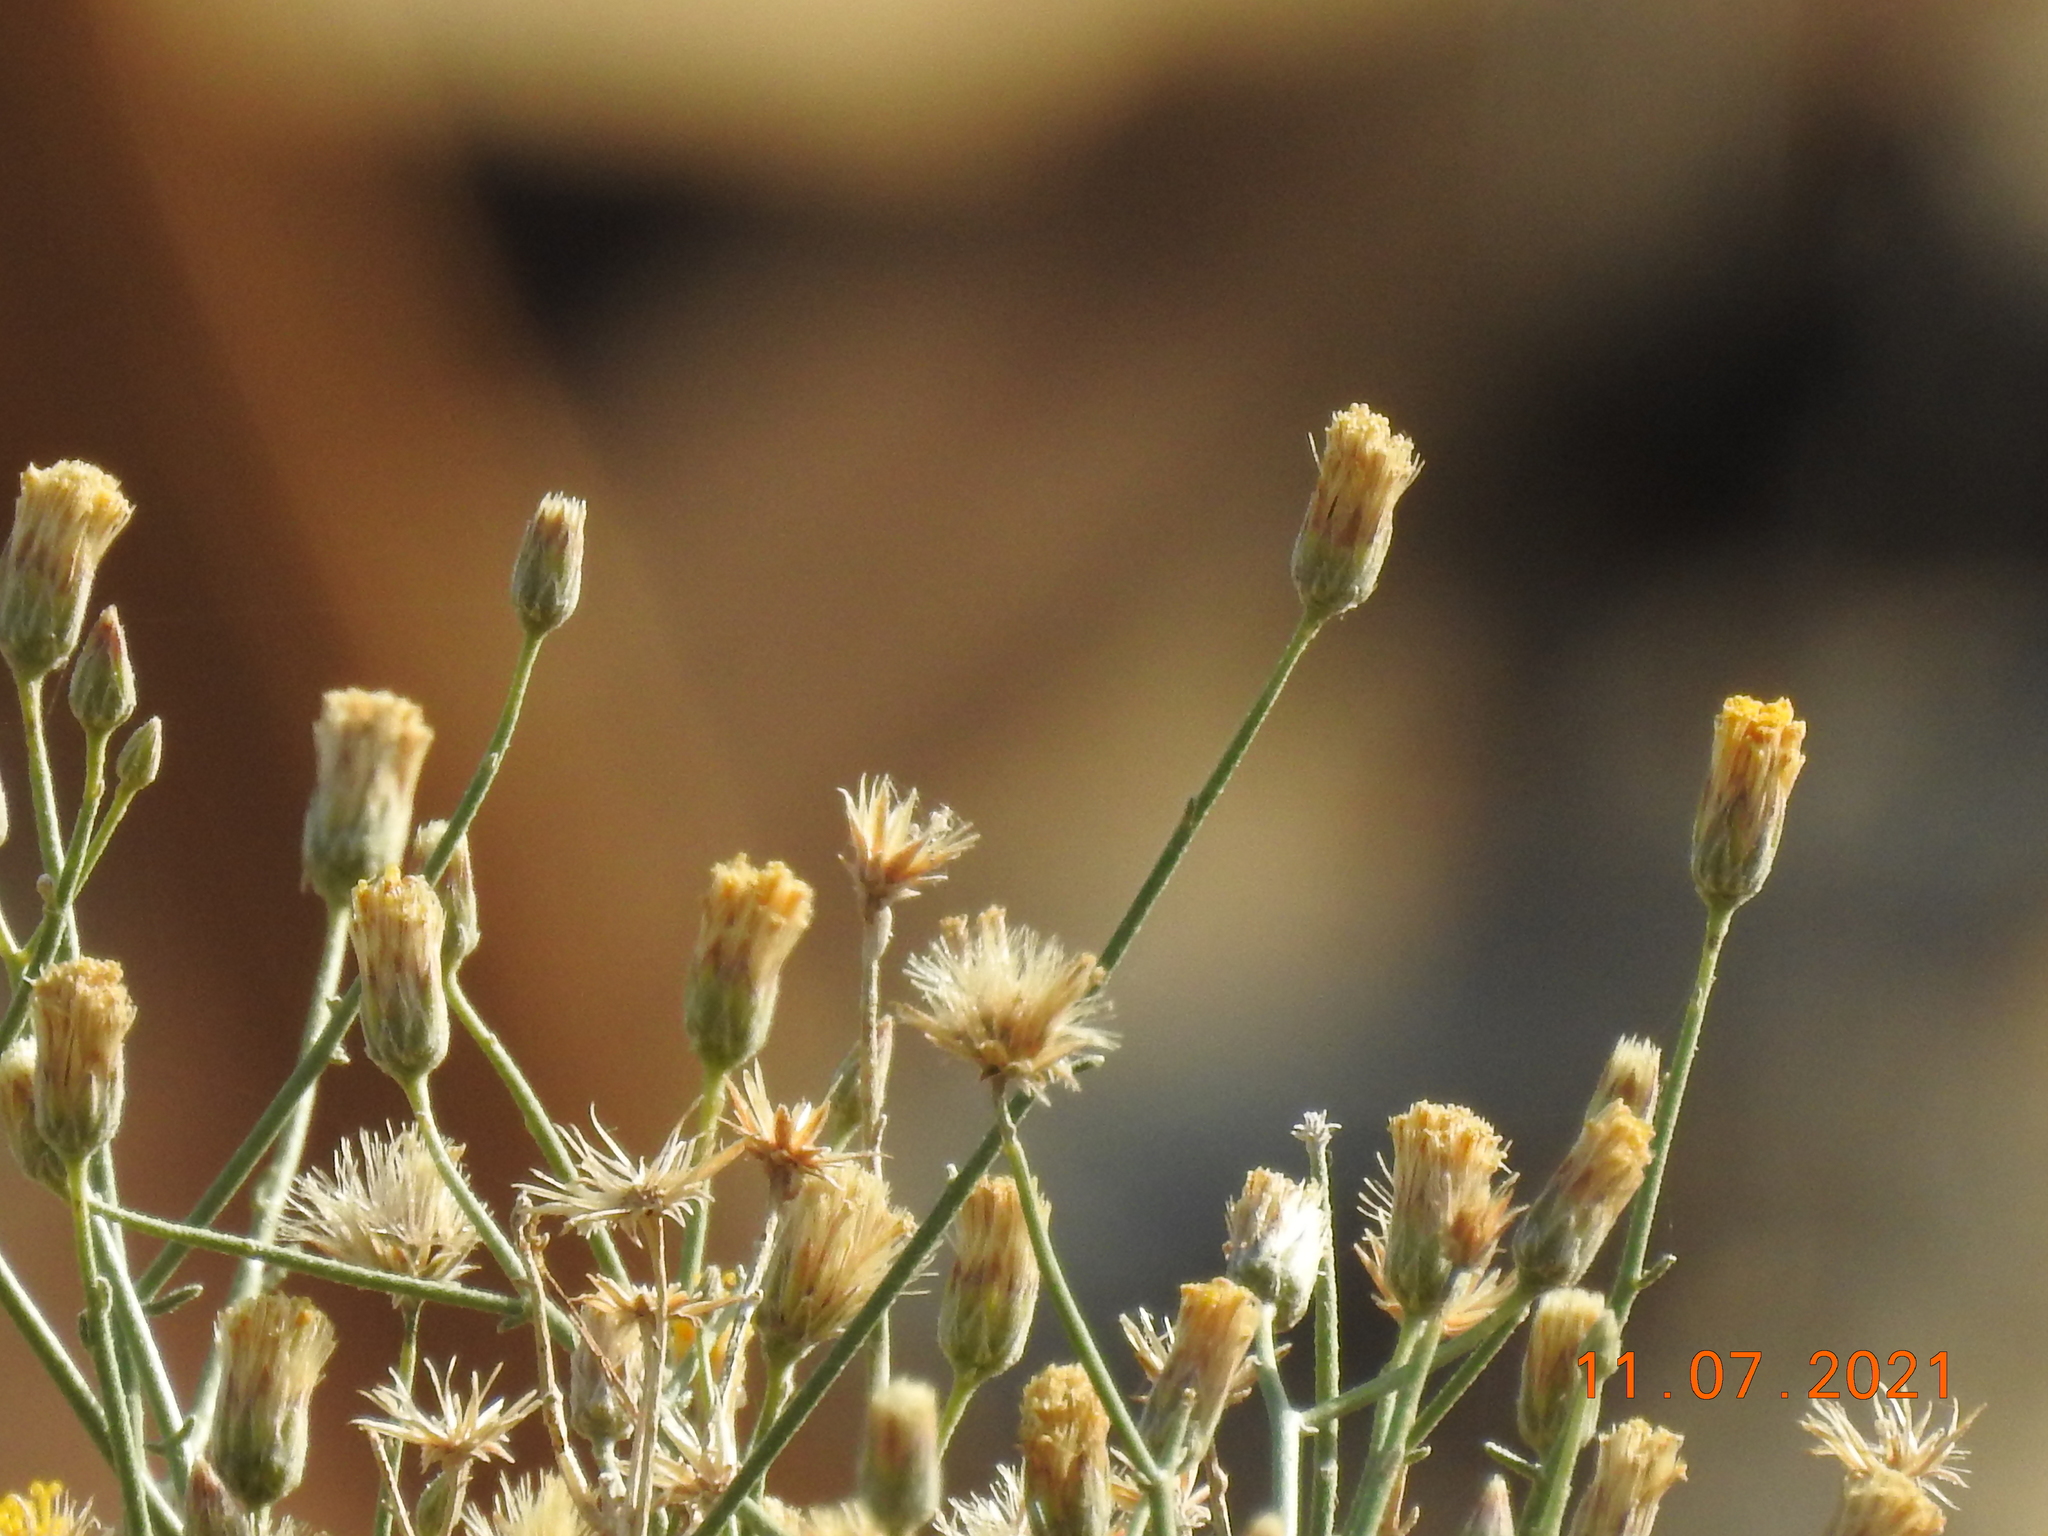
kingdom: Plantae
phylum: Tracheophyta
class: Magnoliopsida
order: Asterales
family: Asteraceae
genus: Bebbia
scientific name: Bebbia juncea
